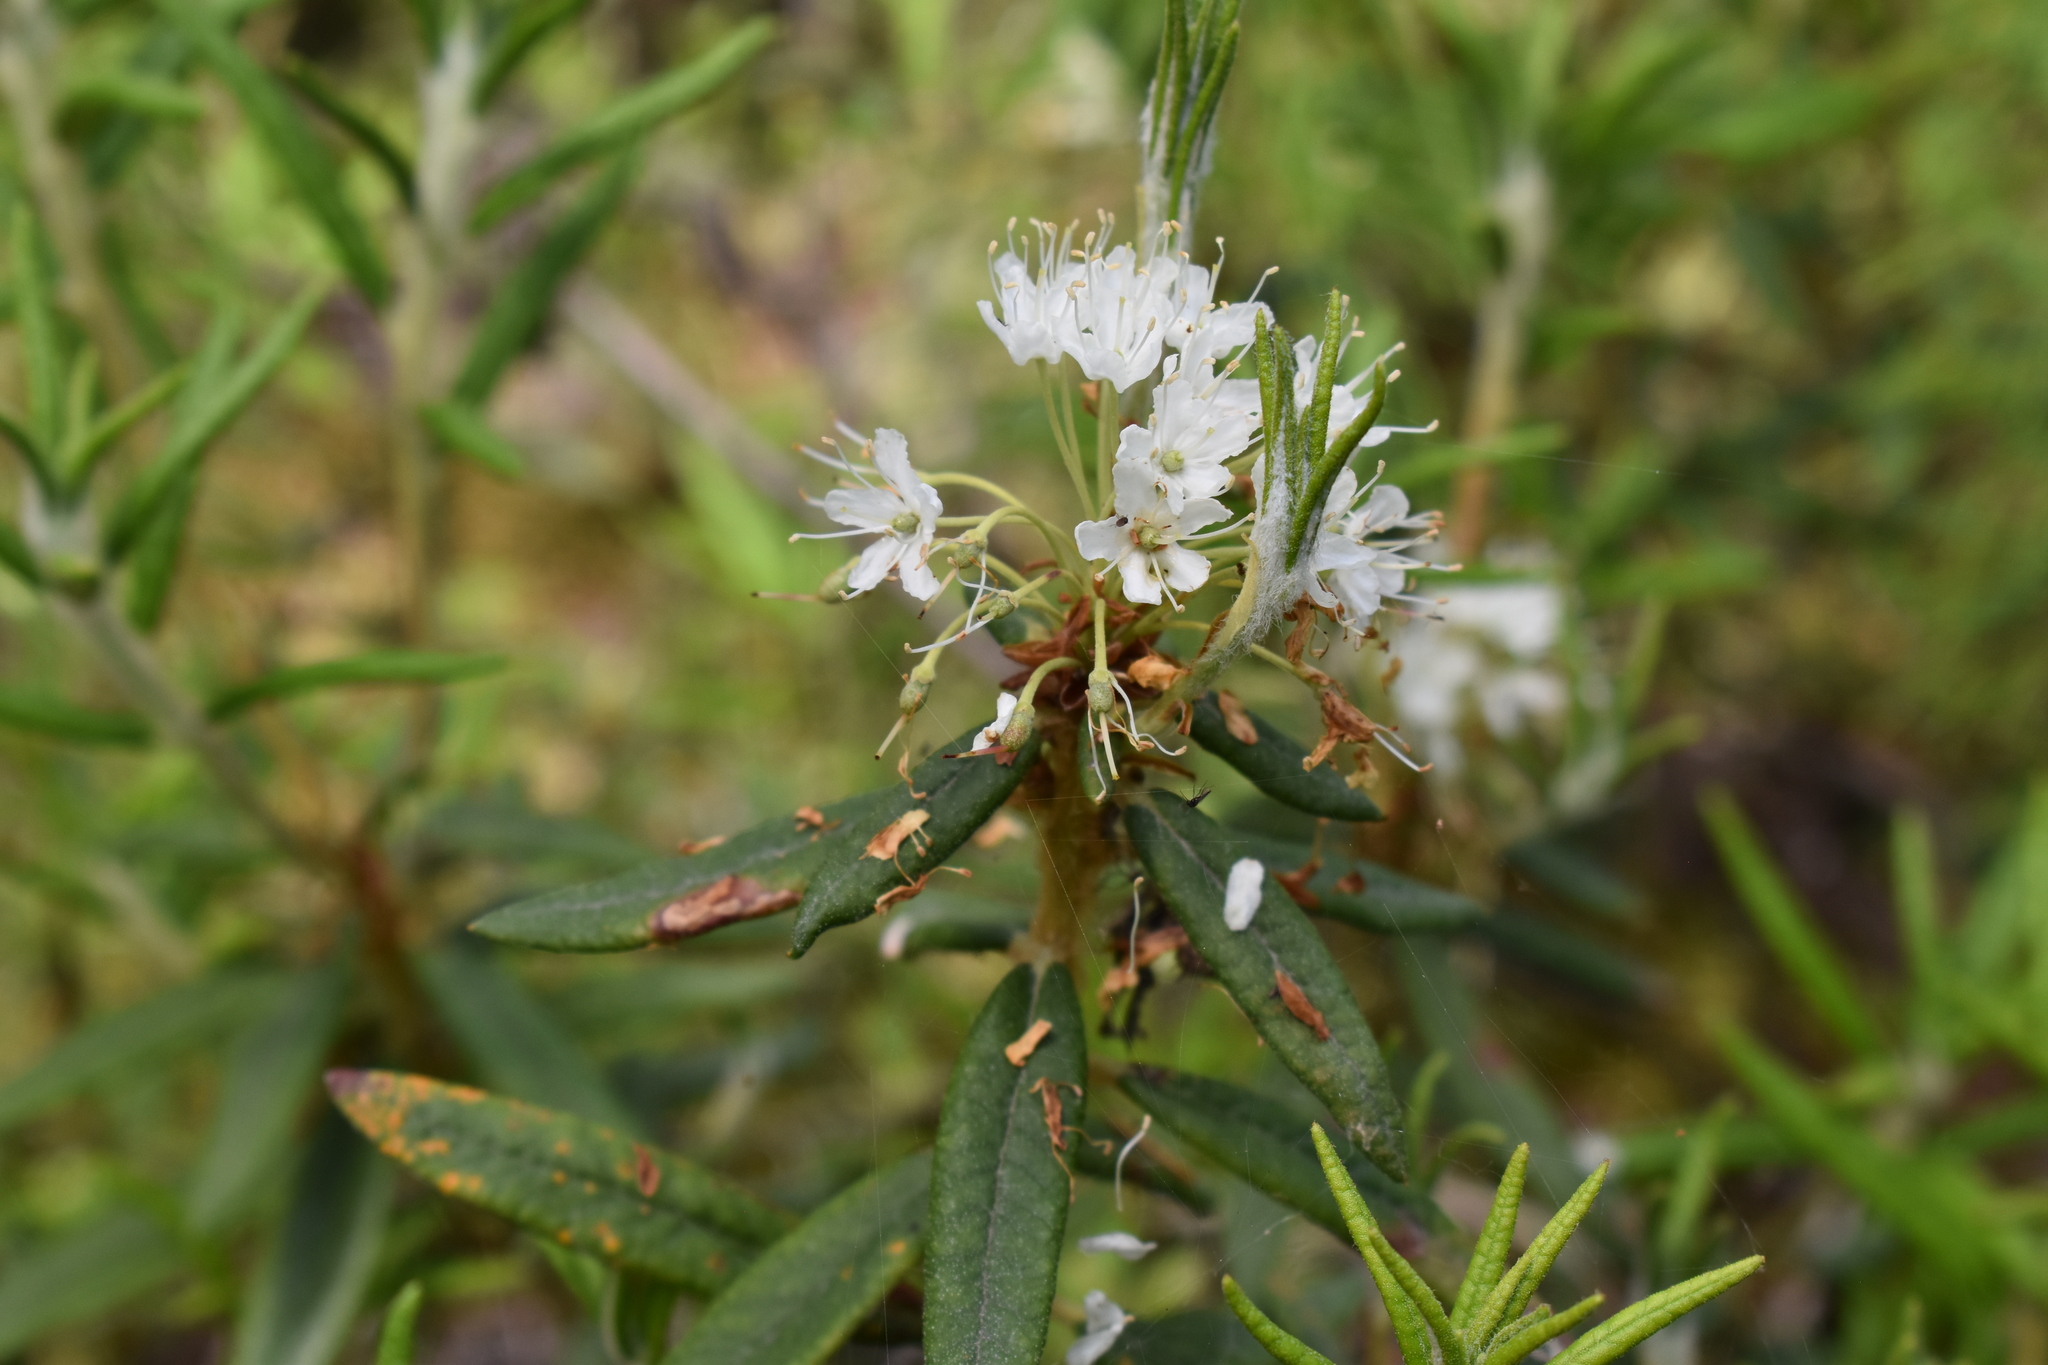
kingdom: Plantae
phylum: Tracheophyta
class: Magnoliopsida
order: Ericales
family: Ericaceae
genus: Rhododendron
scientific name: Rhododendron groenlandicum
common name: Bog labrador tea
